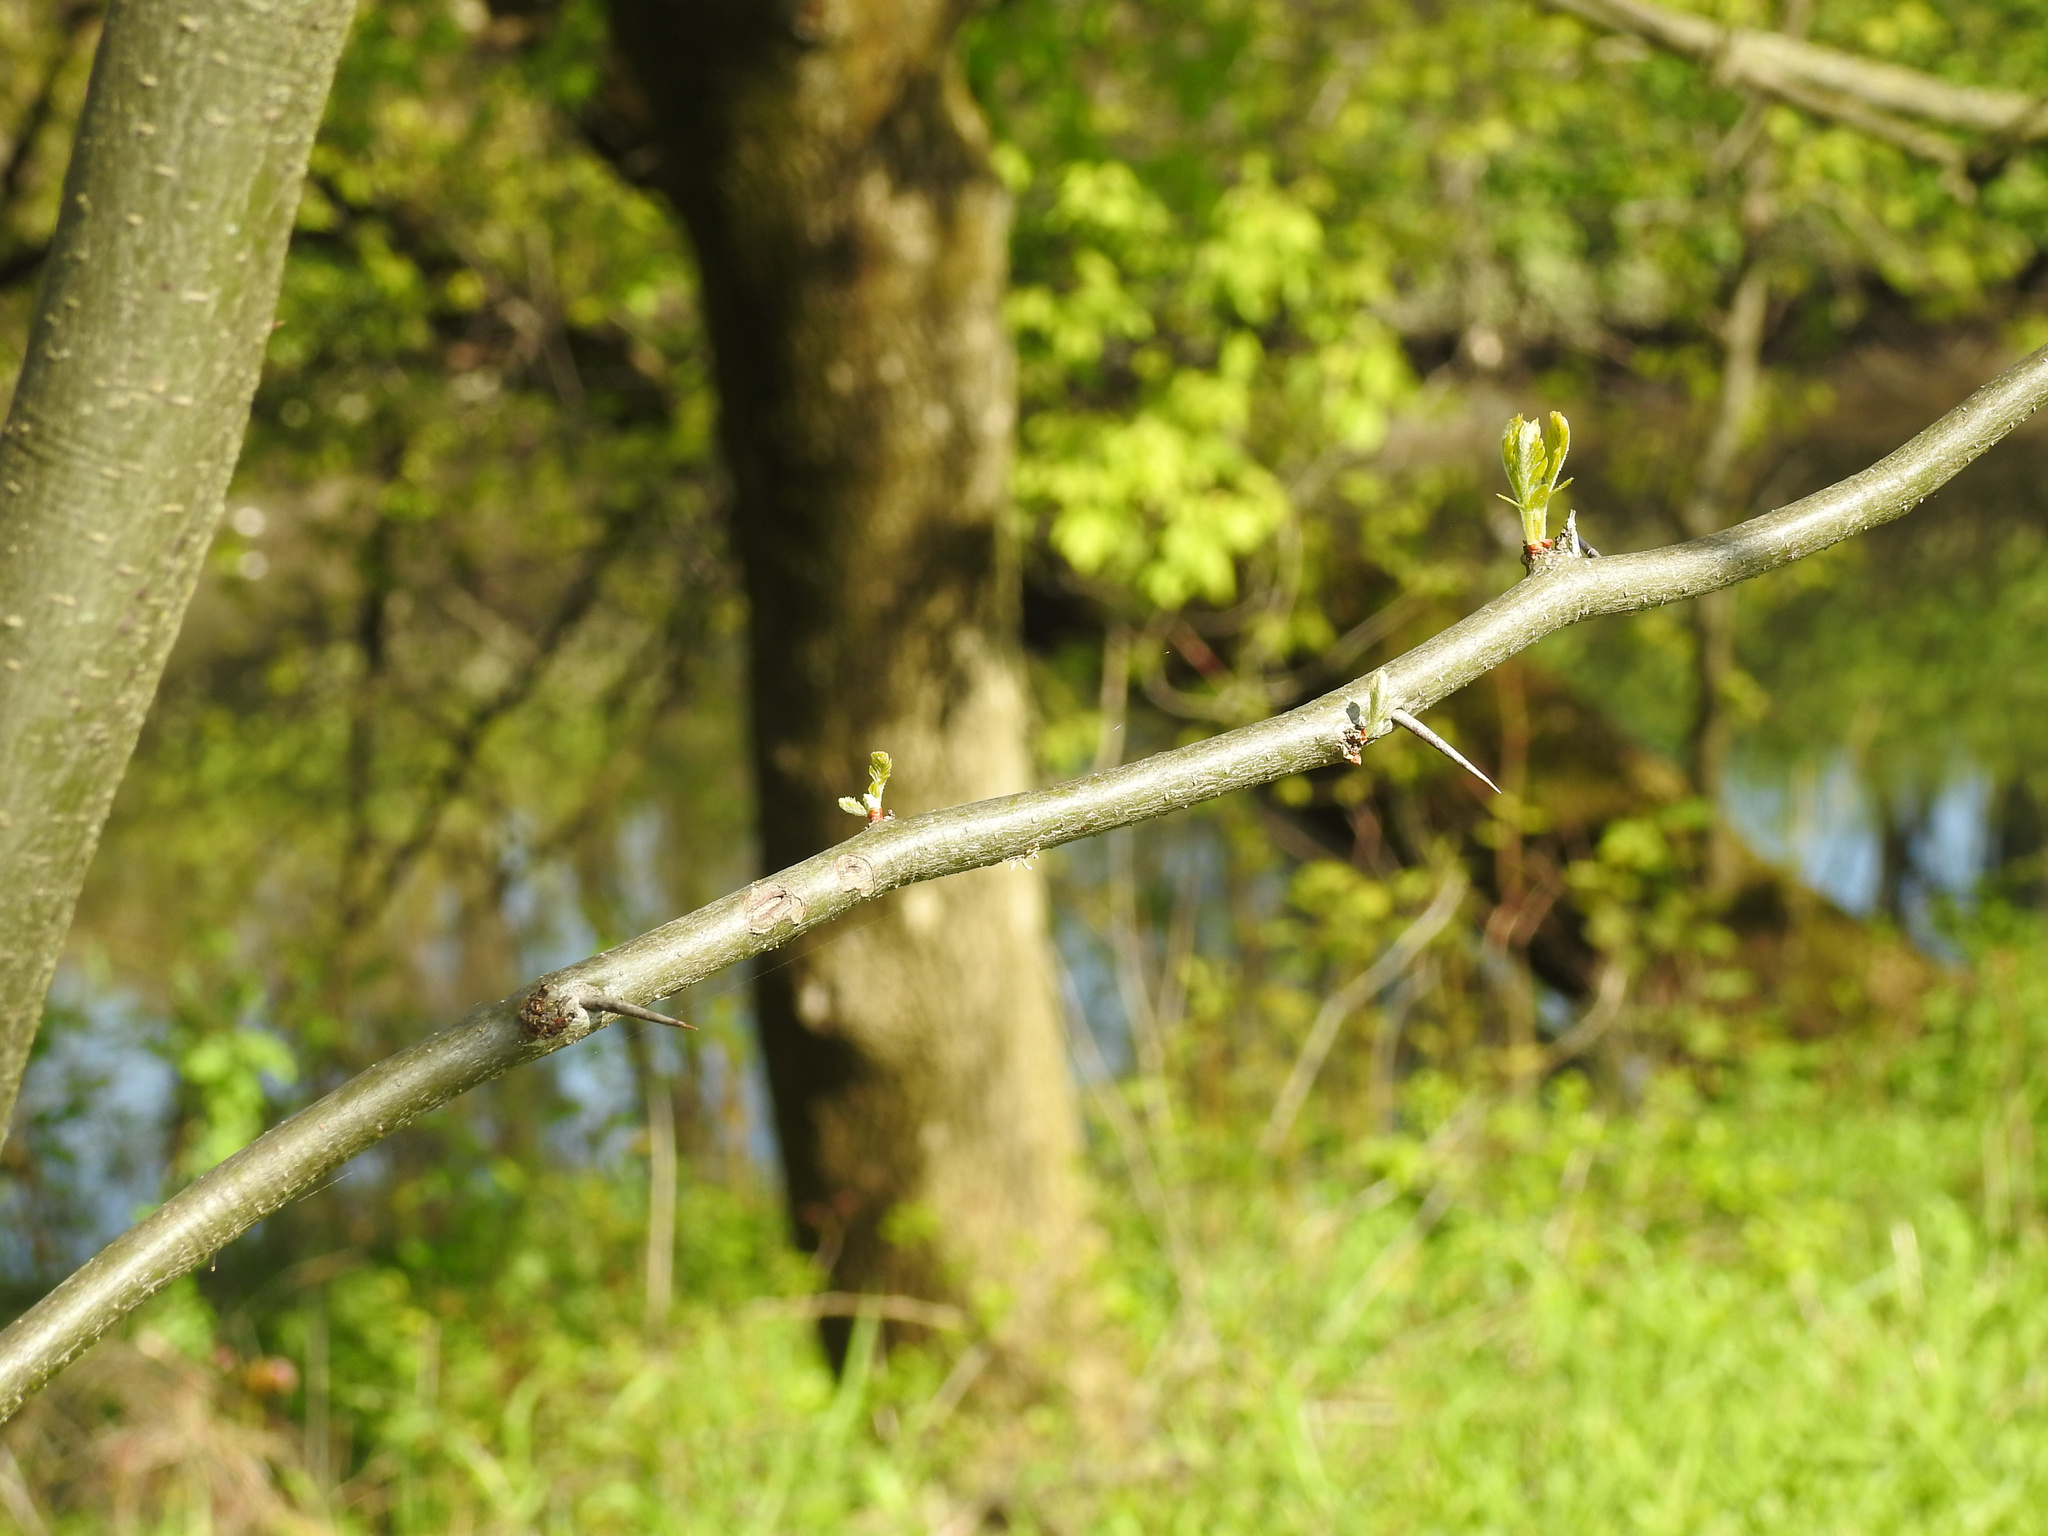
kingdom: Plantae
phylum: Tracheophyta
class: Magnoliopsida
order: Rosales
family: Moraceae
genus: Maclura
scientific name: Maclura pomifera
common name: Osage-orange
